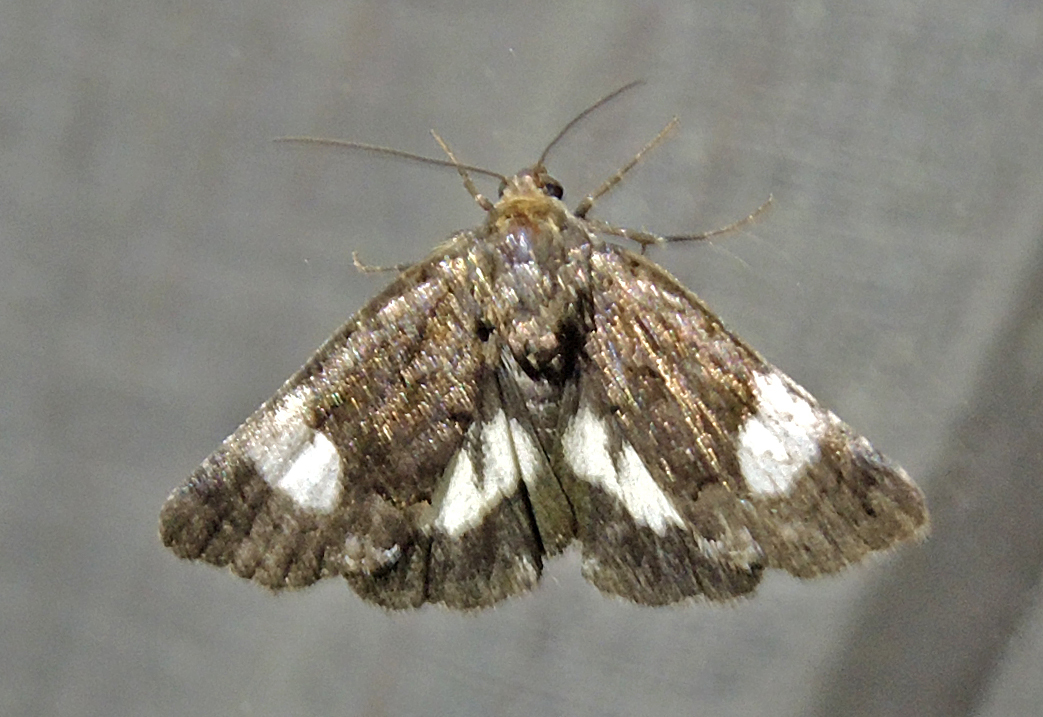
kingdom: Animalia
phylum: Arthropoda
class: Insecta
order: Lepidoptera
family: Erebidae
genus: Tyta
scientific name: Tyta luctuosa
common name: Four-spotted
